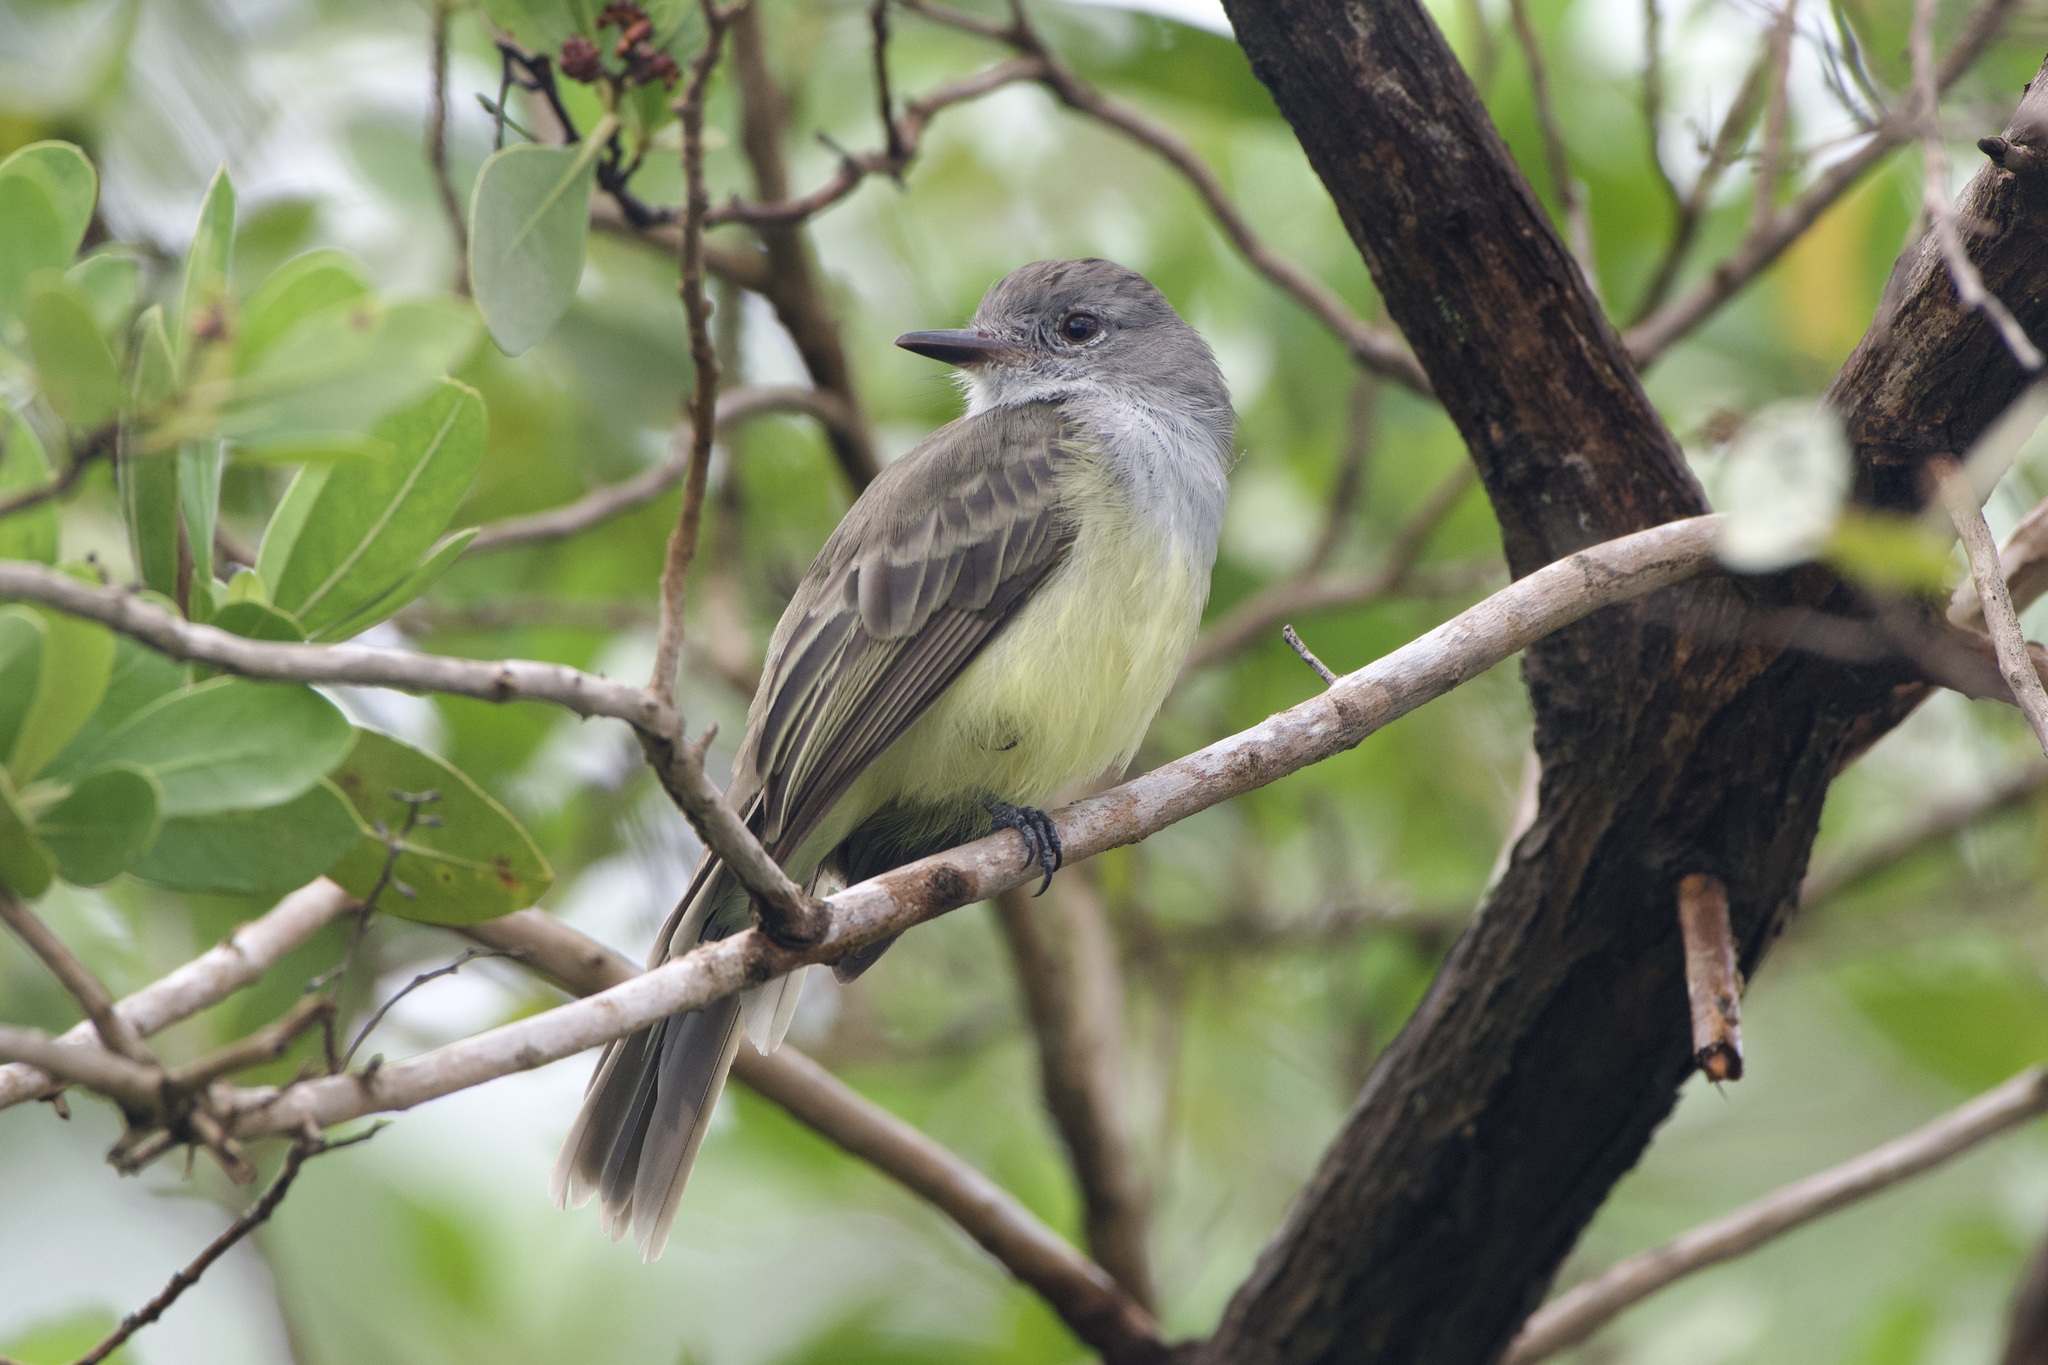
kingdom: Animalia
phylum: Chordata
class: Aves
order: Passeriformes
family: Tyrannidae
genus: Myiarchus
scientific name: Myiarchus crinitus
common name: Great crested flycatcher
